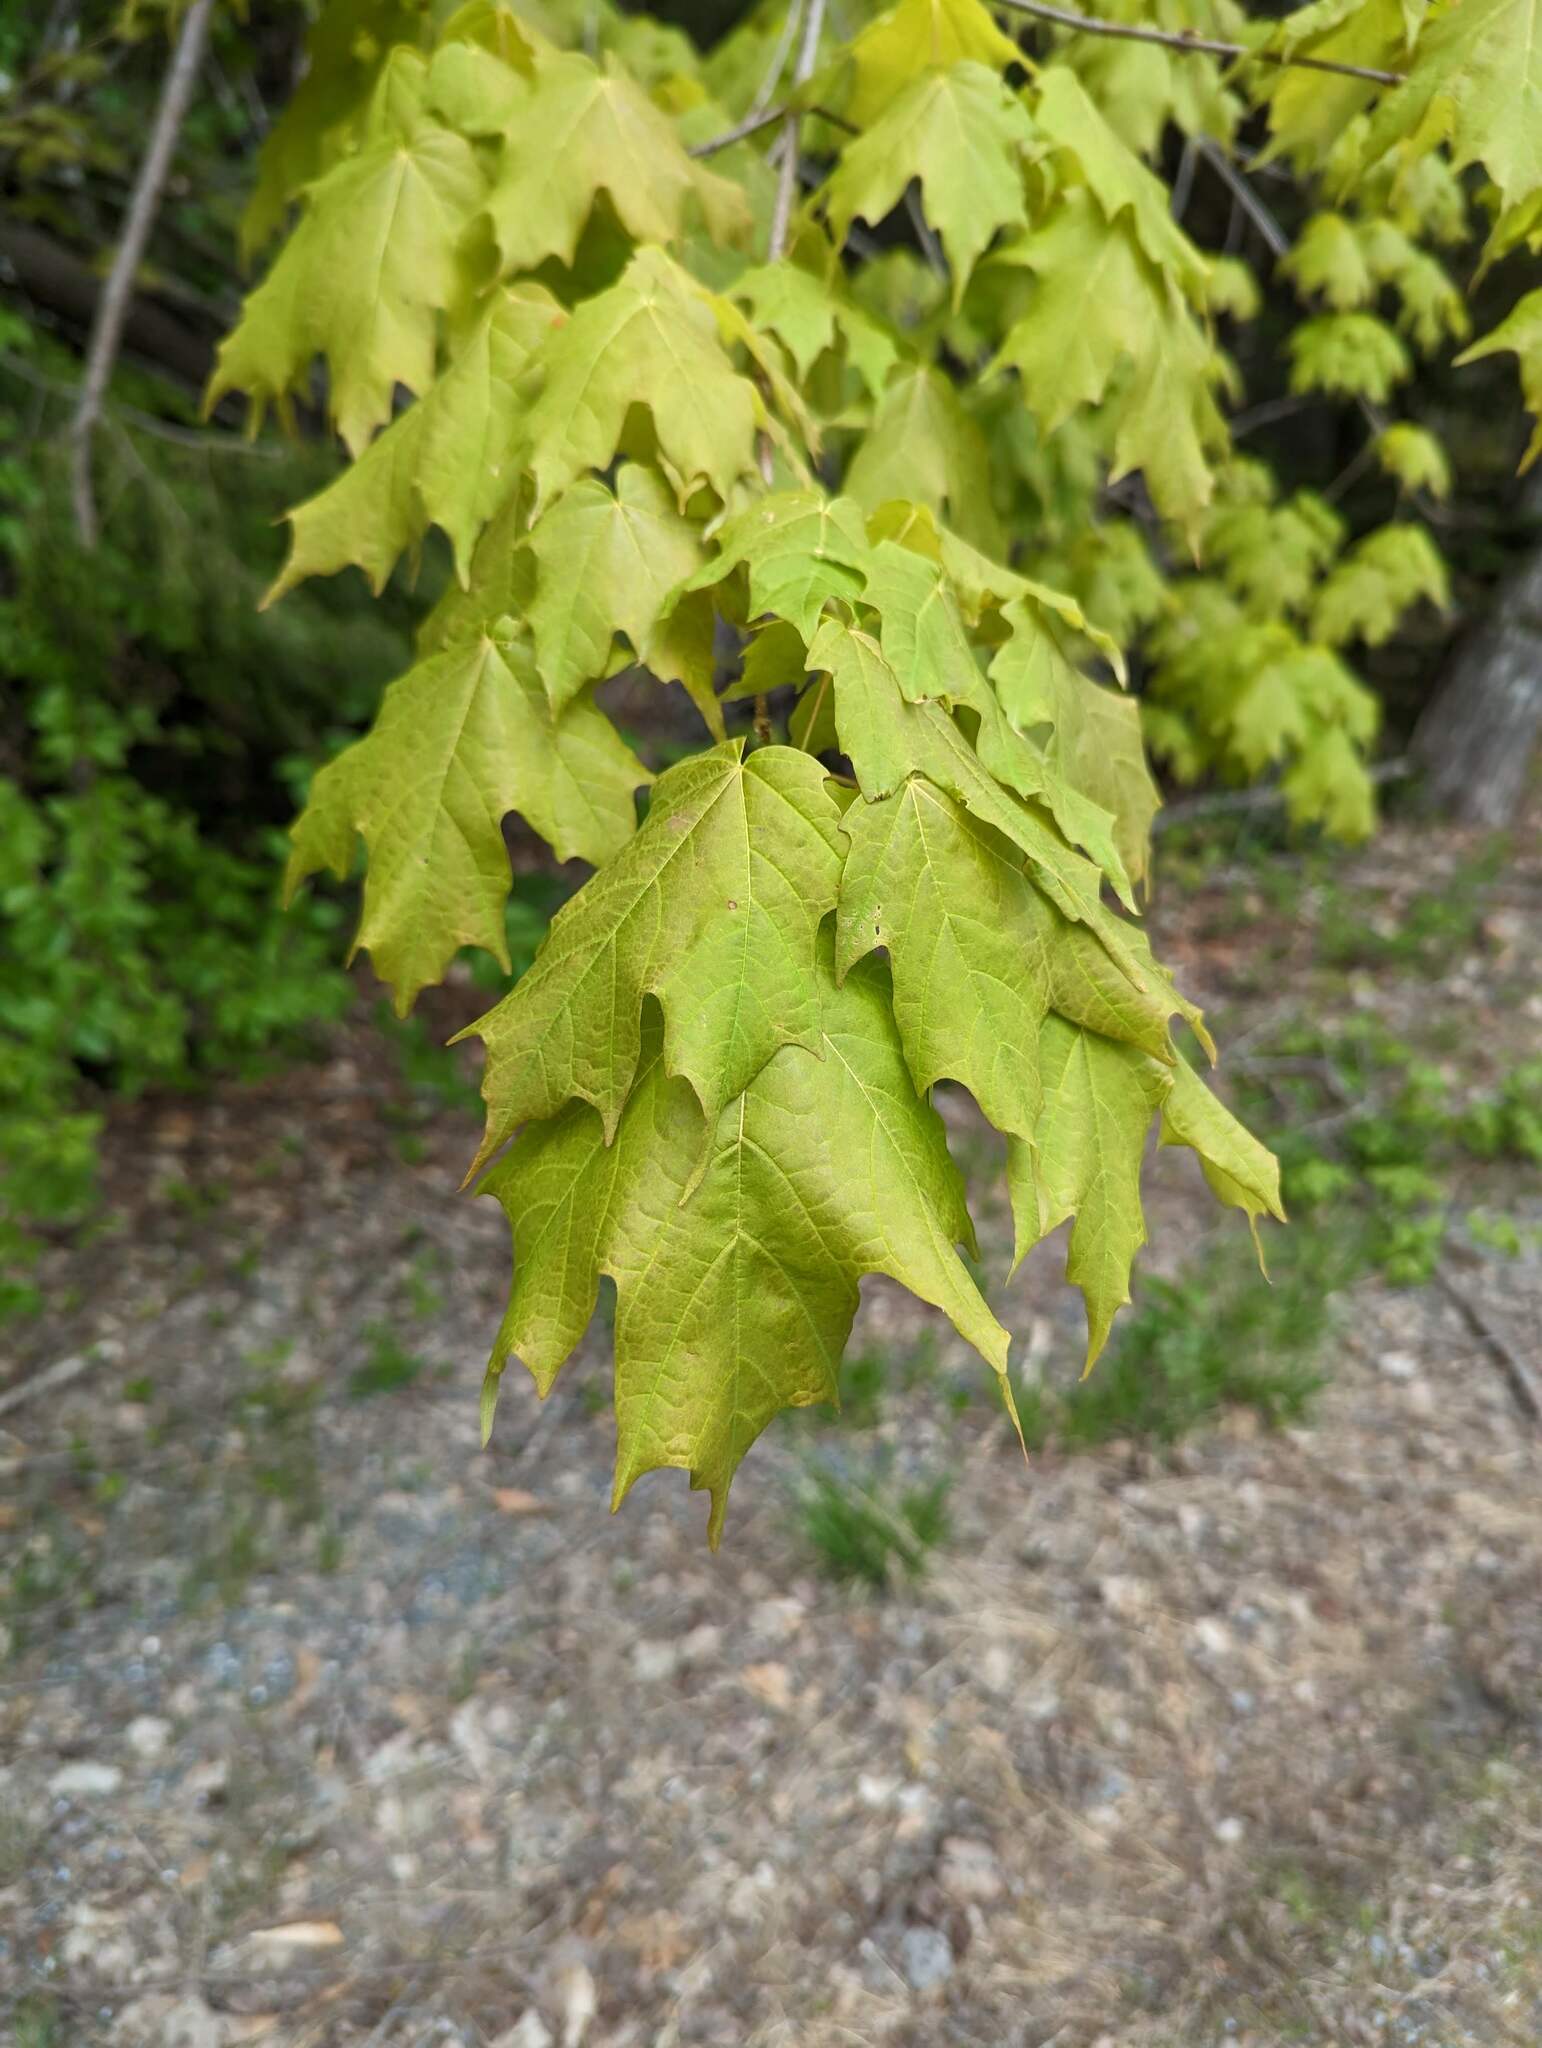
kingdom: Plantae
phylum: Tracheophyta
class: Magnoliopsida
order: Sapindales
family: Sapindaceae
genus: Acer
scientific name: Acer saccharum
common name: Sugar maple
